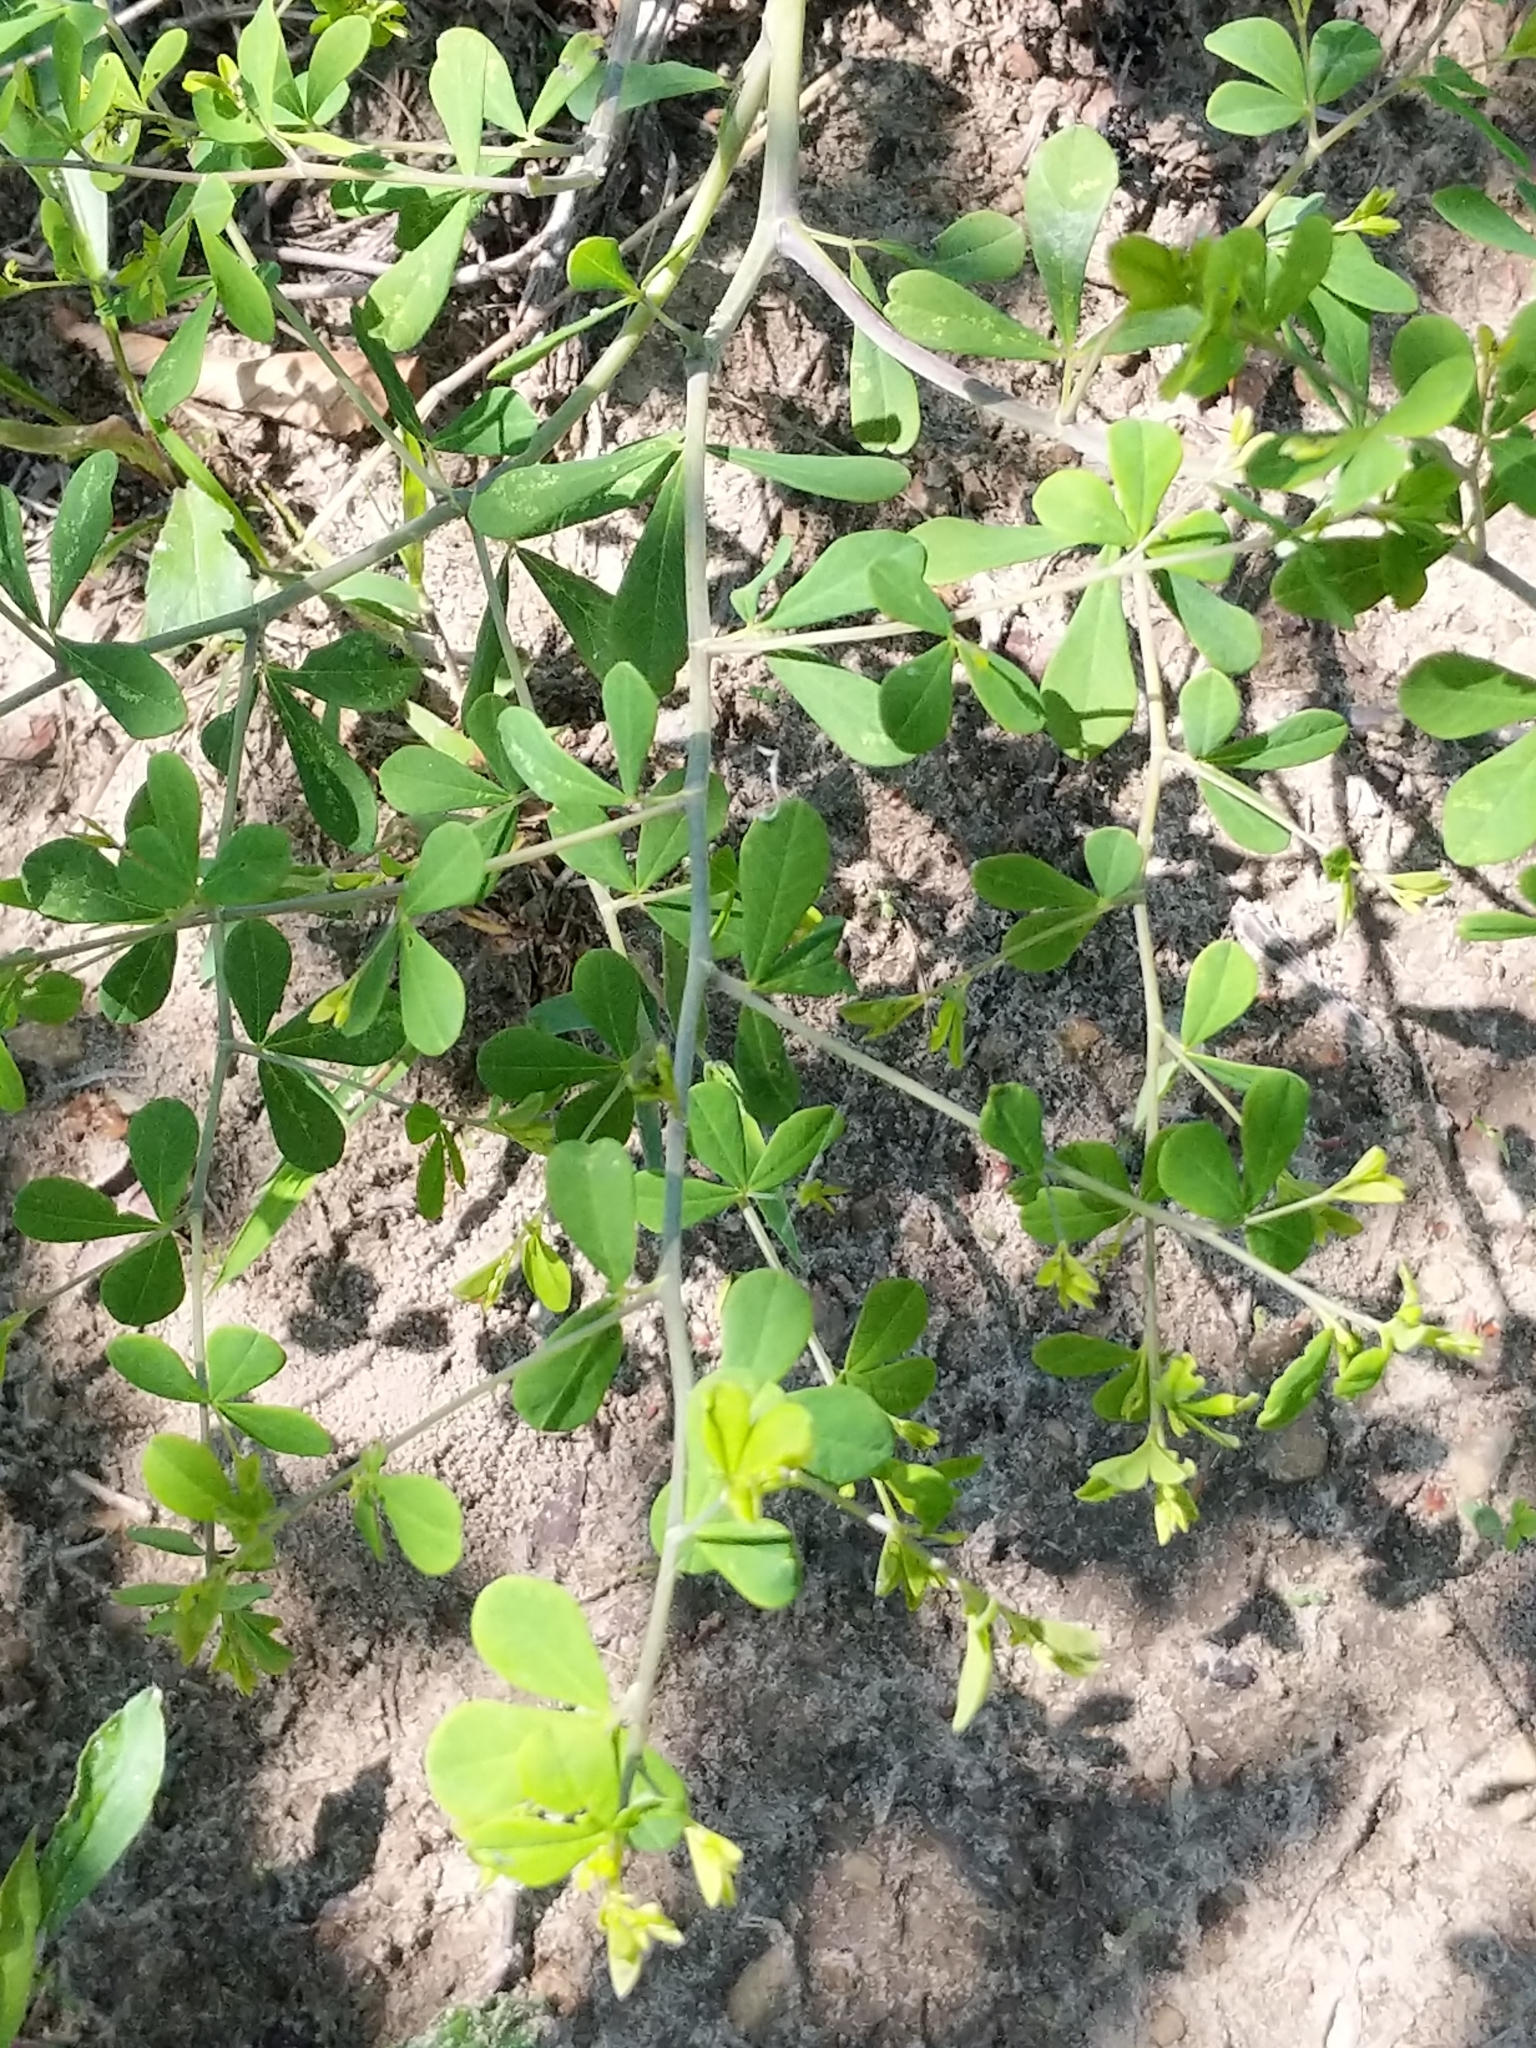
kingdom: Plantae
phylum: Tracheophyta
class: Magnoliopsida
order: Fabales
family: Fabaceae
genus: Baptisia
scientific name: Baptisia tinctoria
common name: Wild indigo
